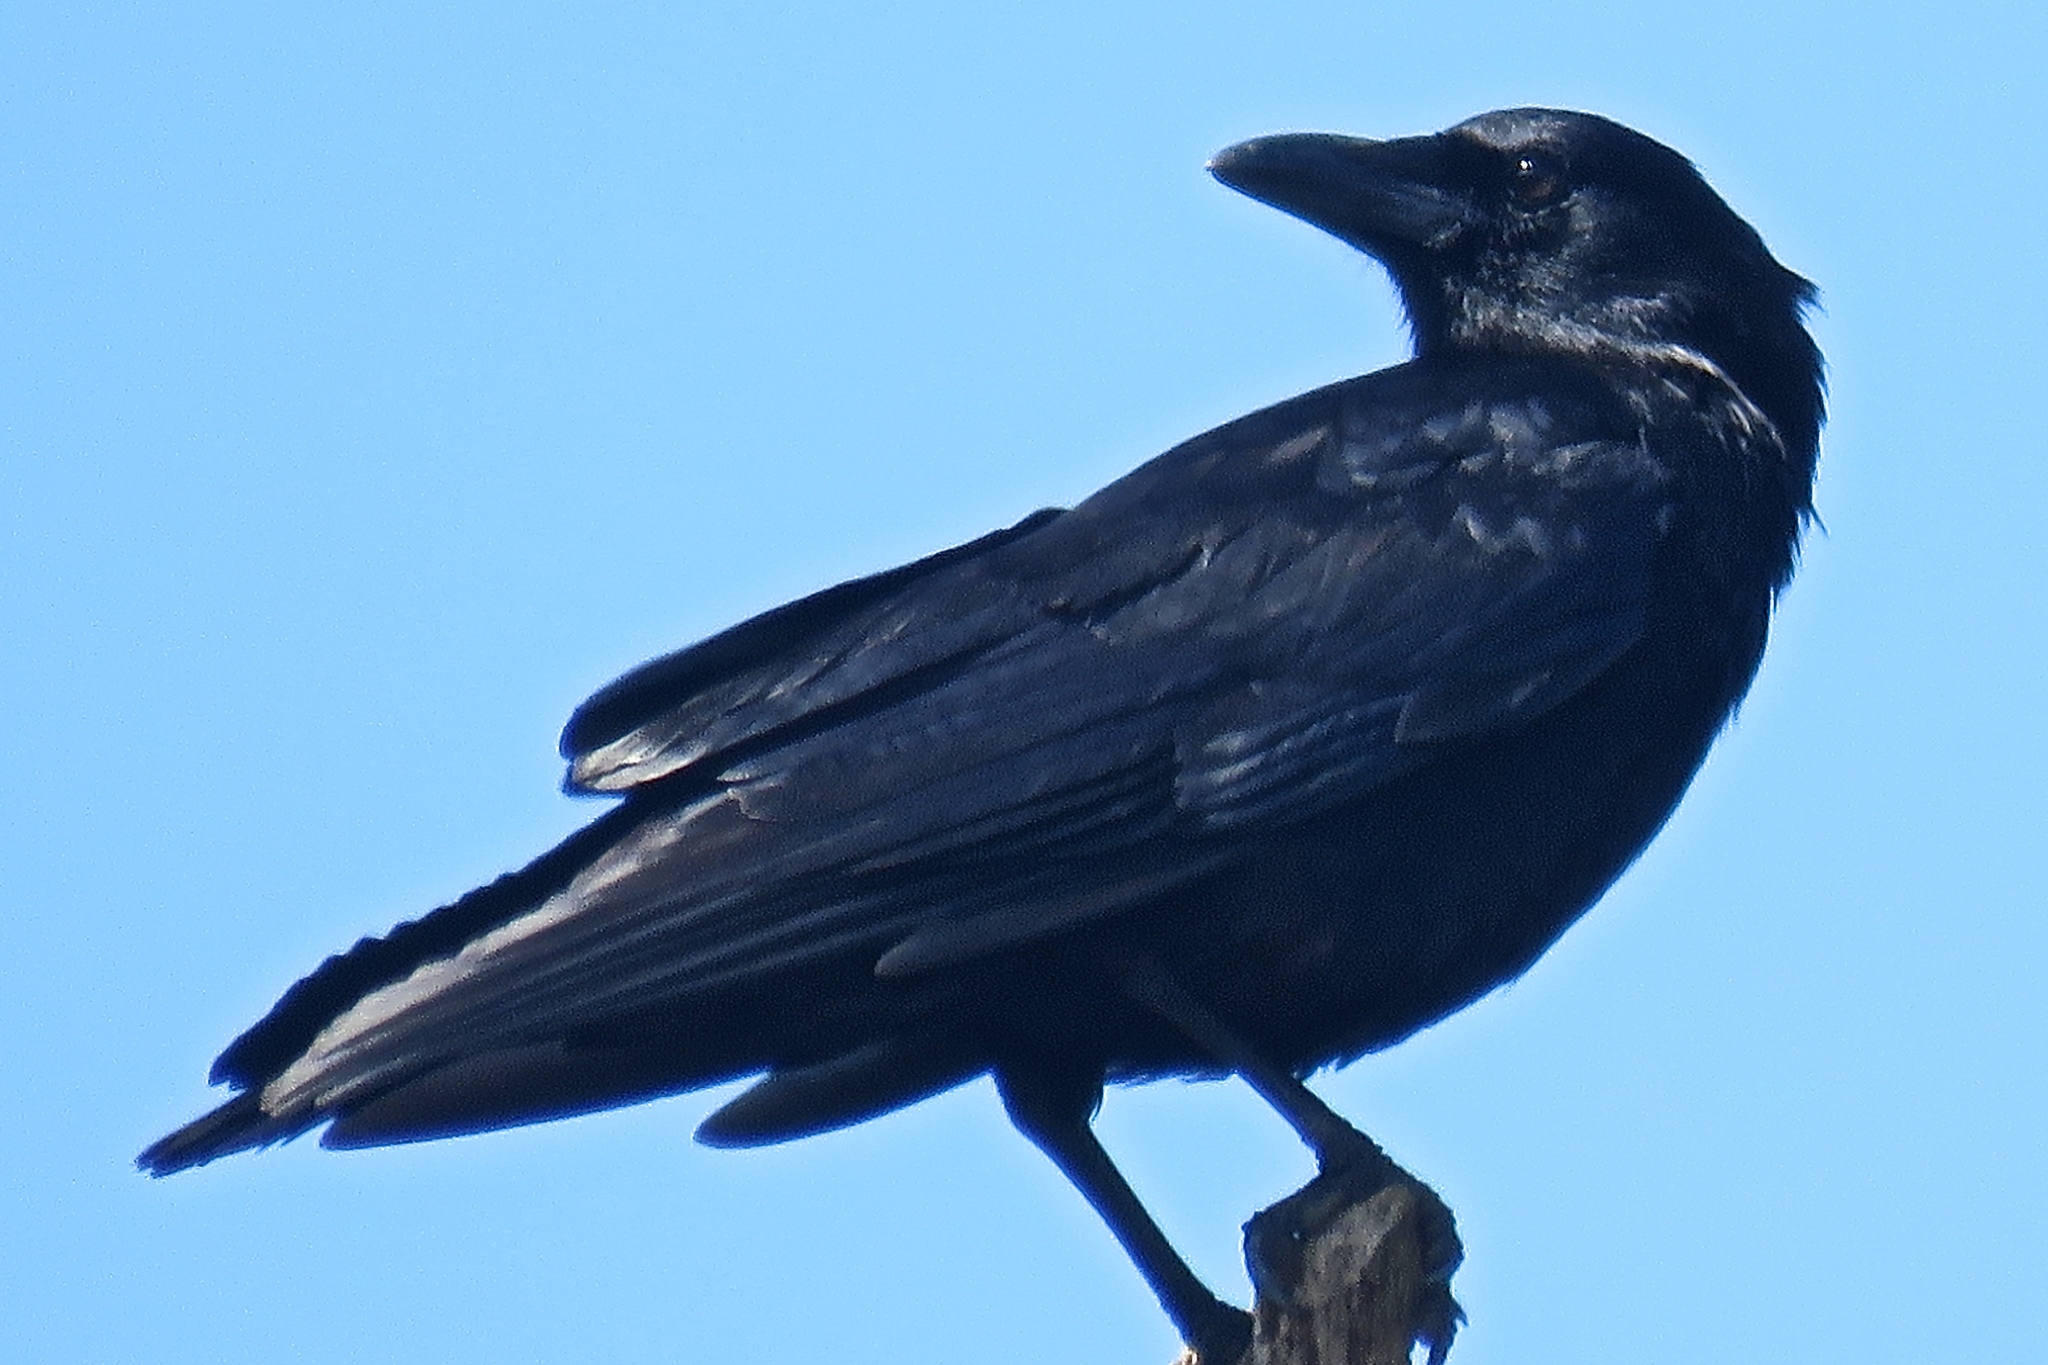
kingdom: Animalia
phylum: Chordata
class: Aves
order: Passeriformes
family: Corvidae
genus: Corvus
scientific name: Corvus brachyrhynchos
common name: American crow
